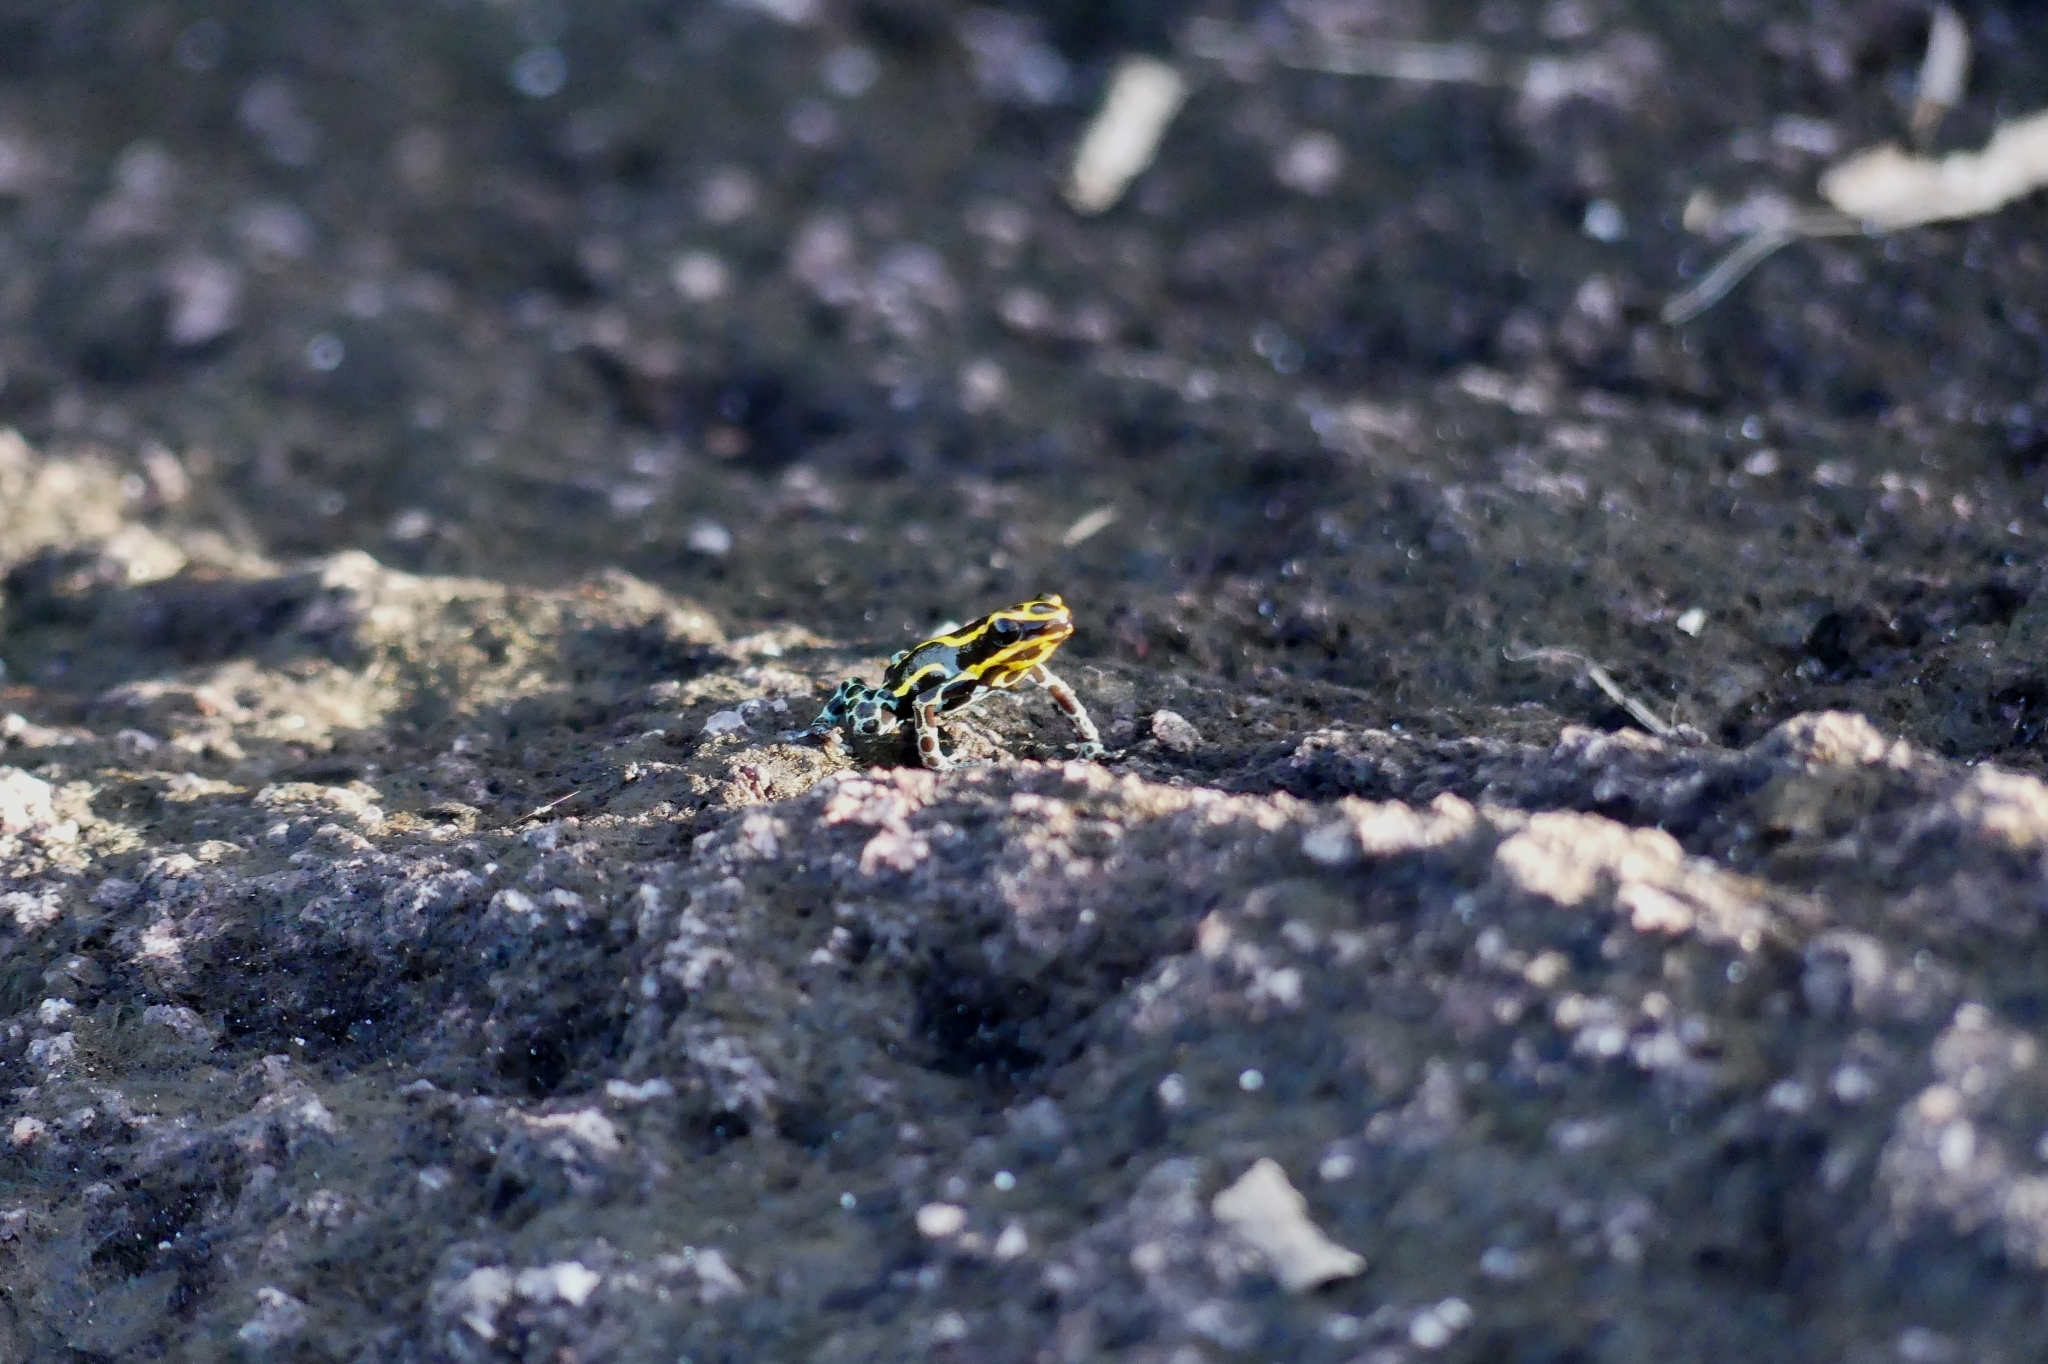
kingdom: Animalia
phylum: Chordata
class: Amphibia
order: Anura
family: Dendrobatidae
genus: Ranitomeya
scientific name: Ranitomeya variabilis
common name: Variable poison frog
